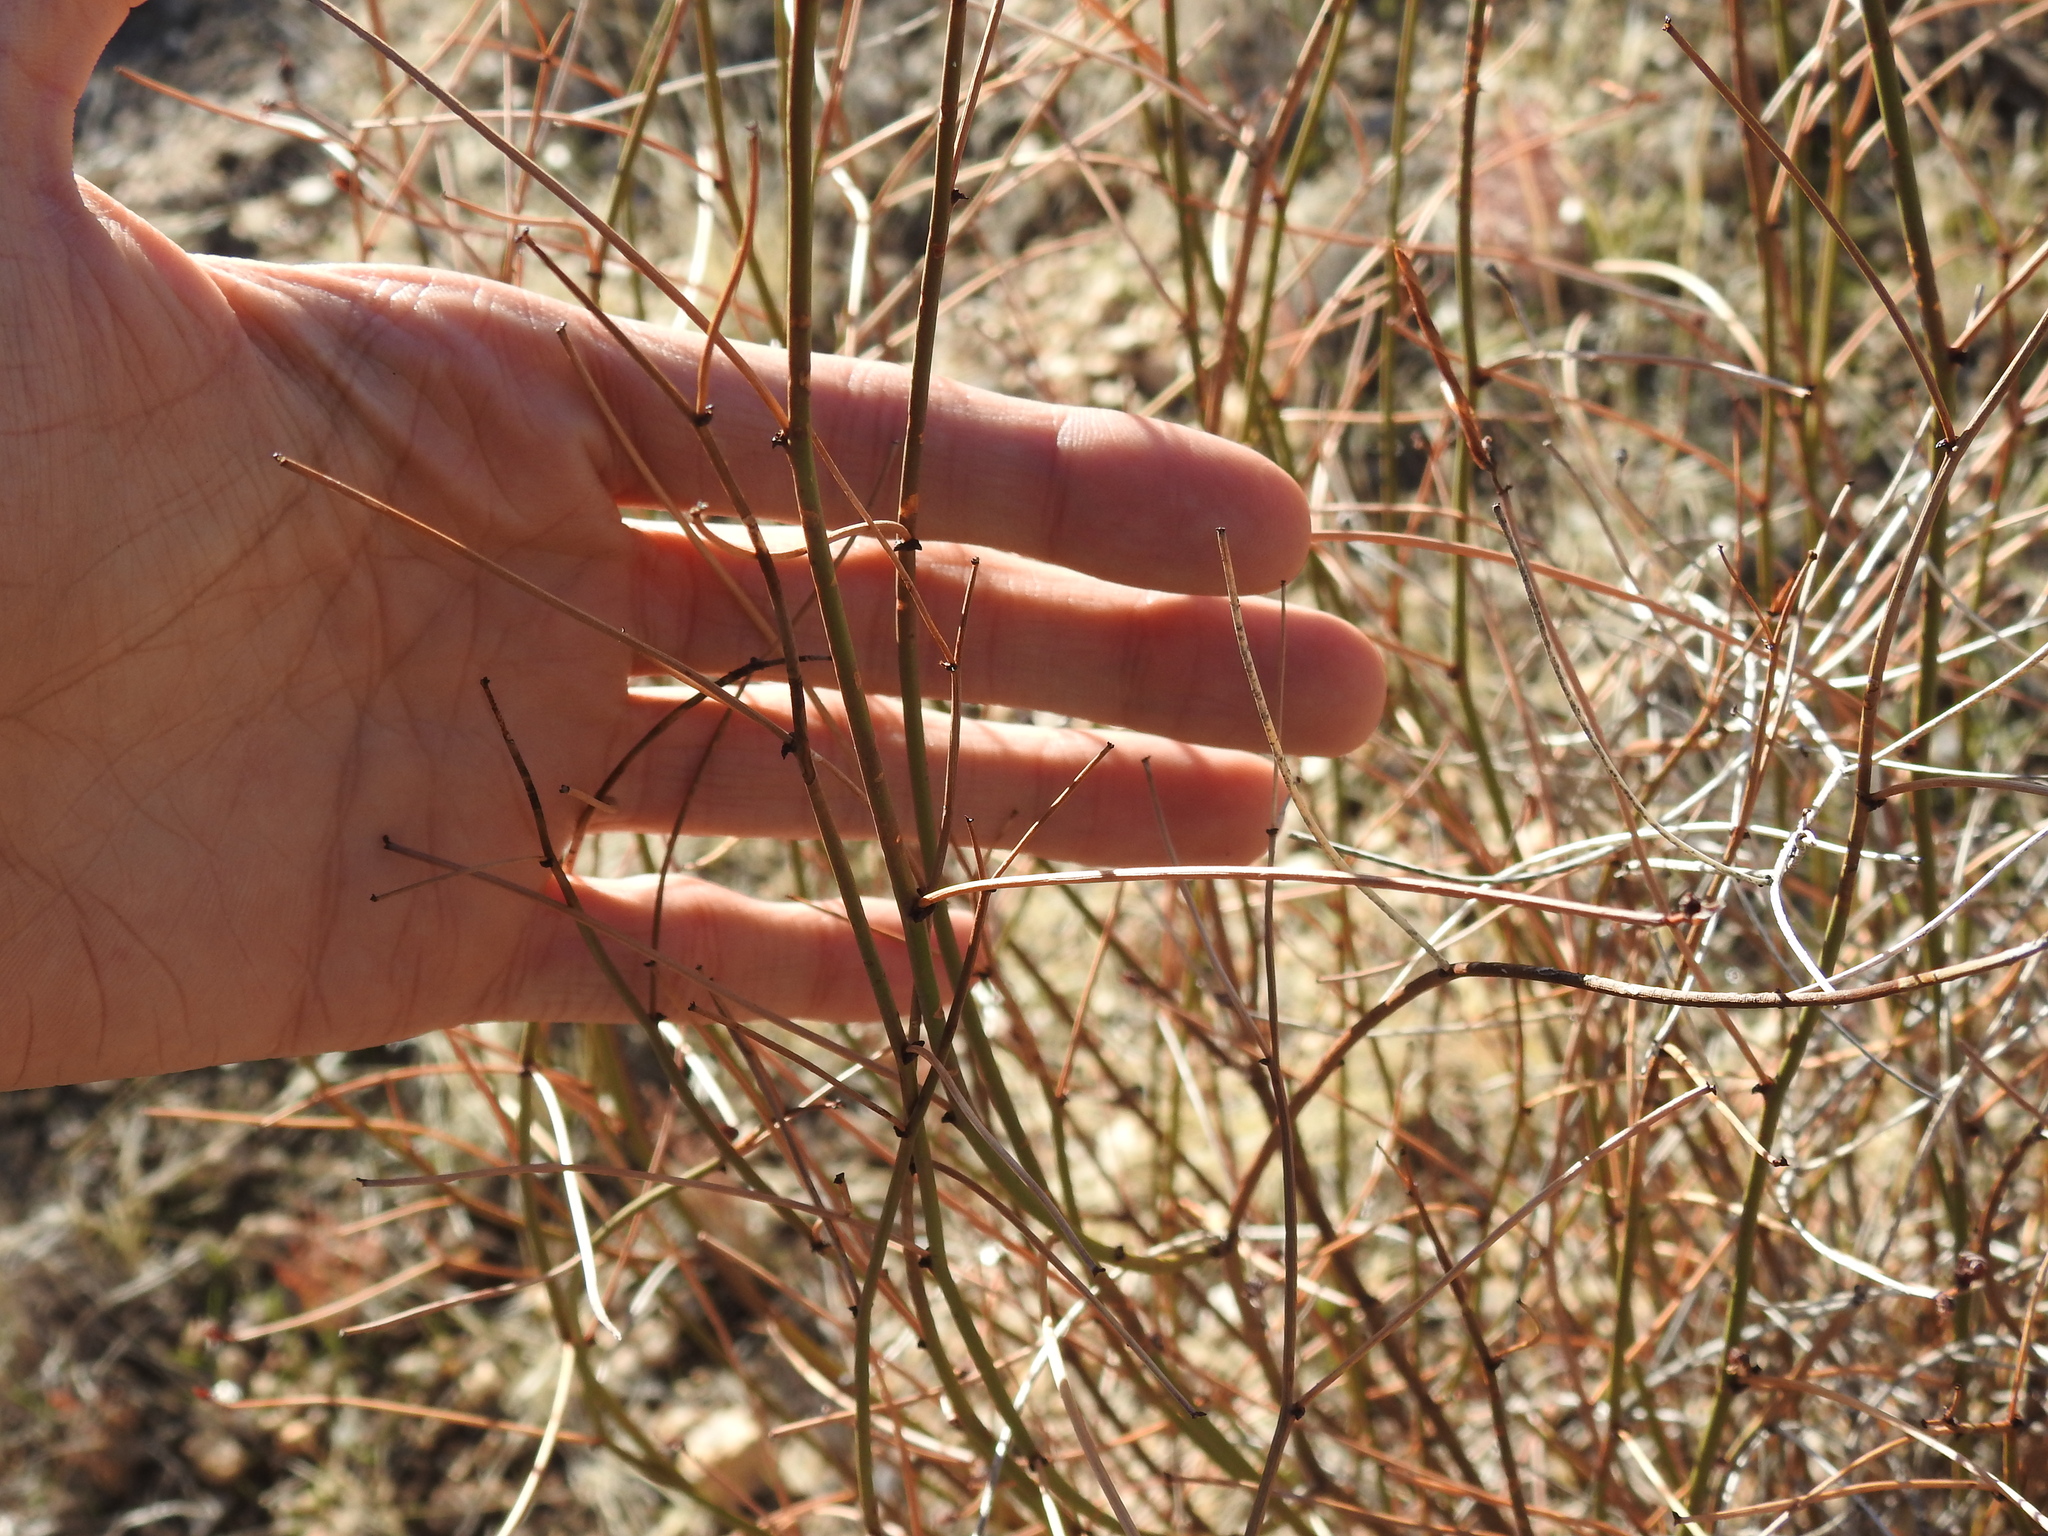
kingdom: Plantae
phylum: Tracheophyta
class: Magnoliopsida
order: Fabales
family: Fabaceae
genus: Acmispon
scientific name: Acmispon rigidus
